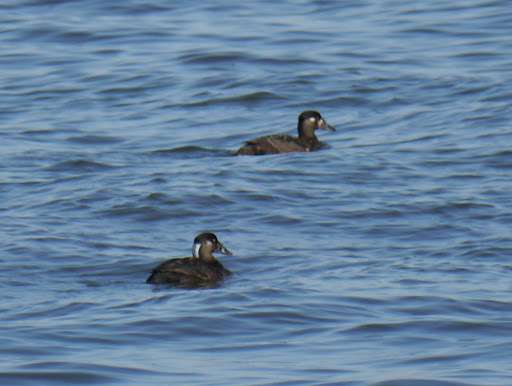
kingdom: Animalia
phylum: Chordata
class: Aves
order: Anseriformes
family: Anatidae
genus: Melanitta
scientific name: Melanitta perspicillata
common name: Surf scoter
